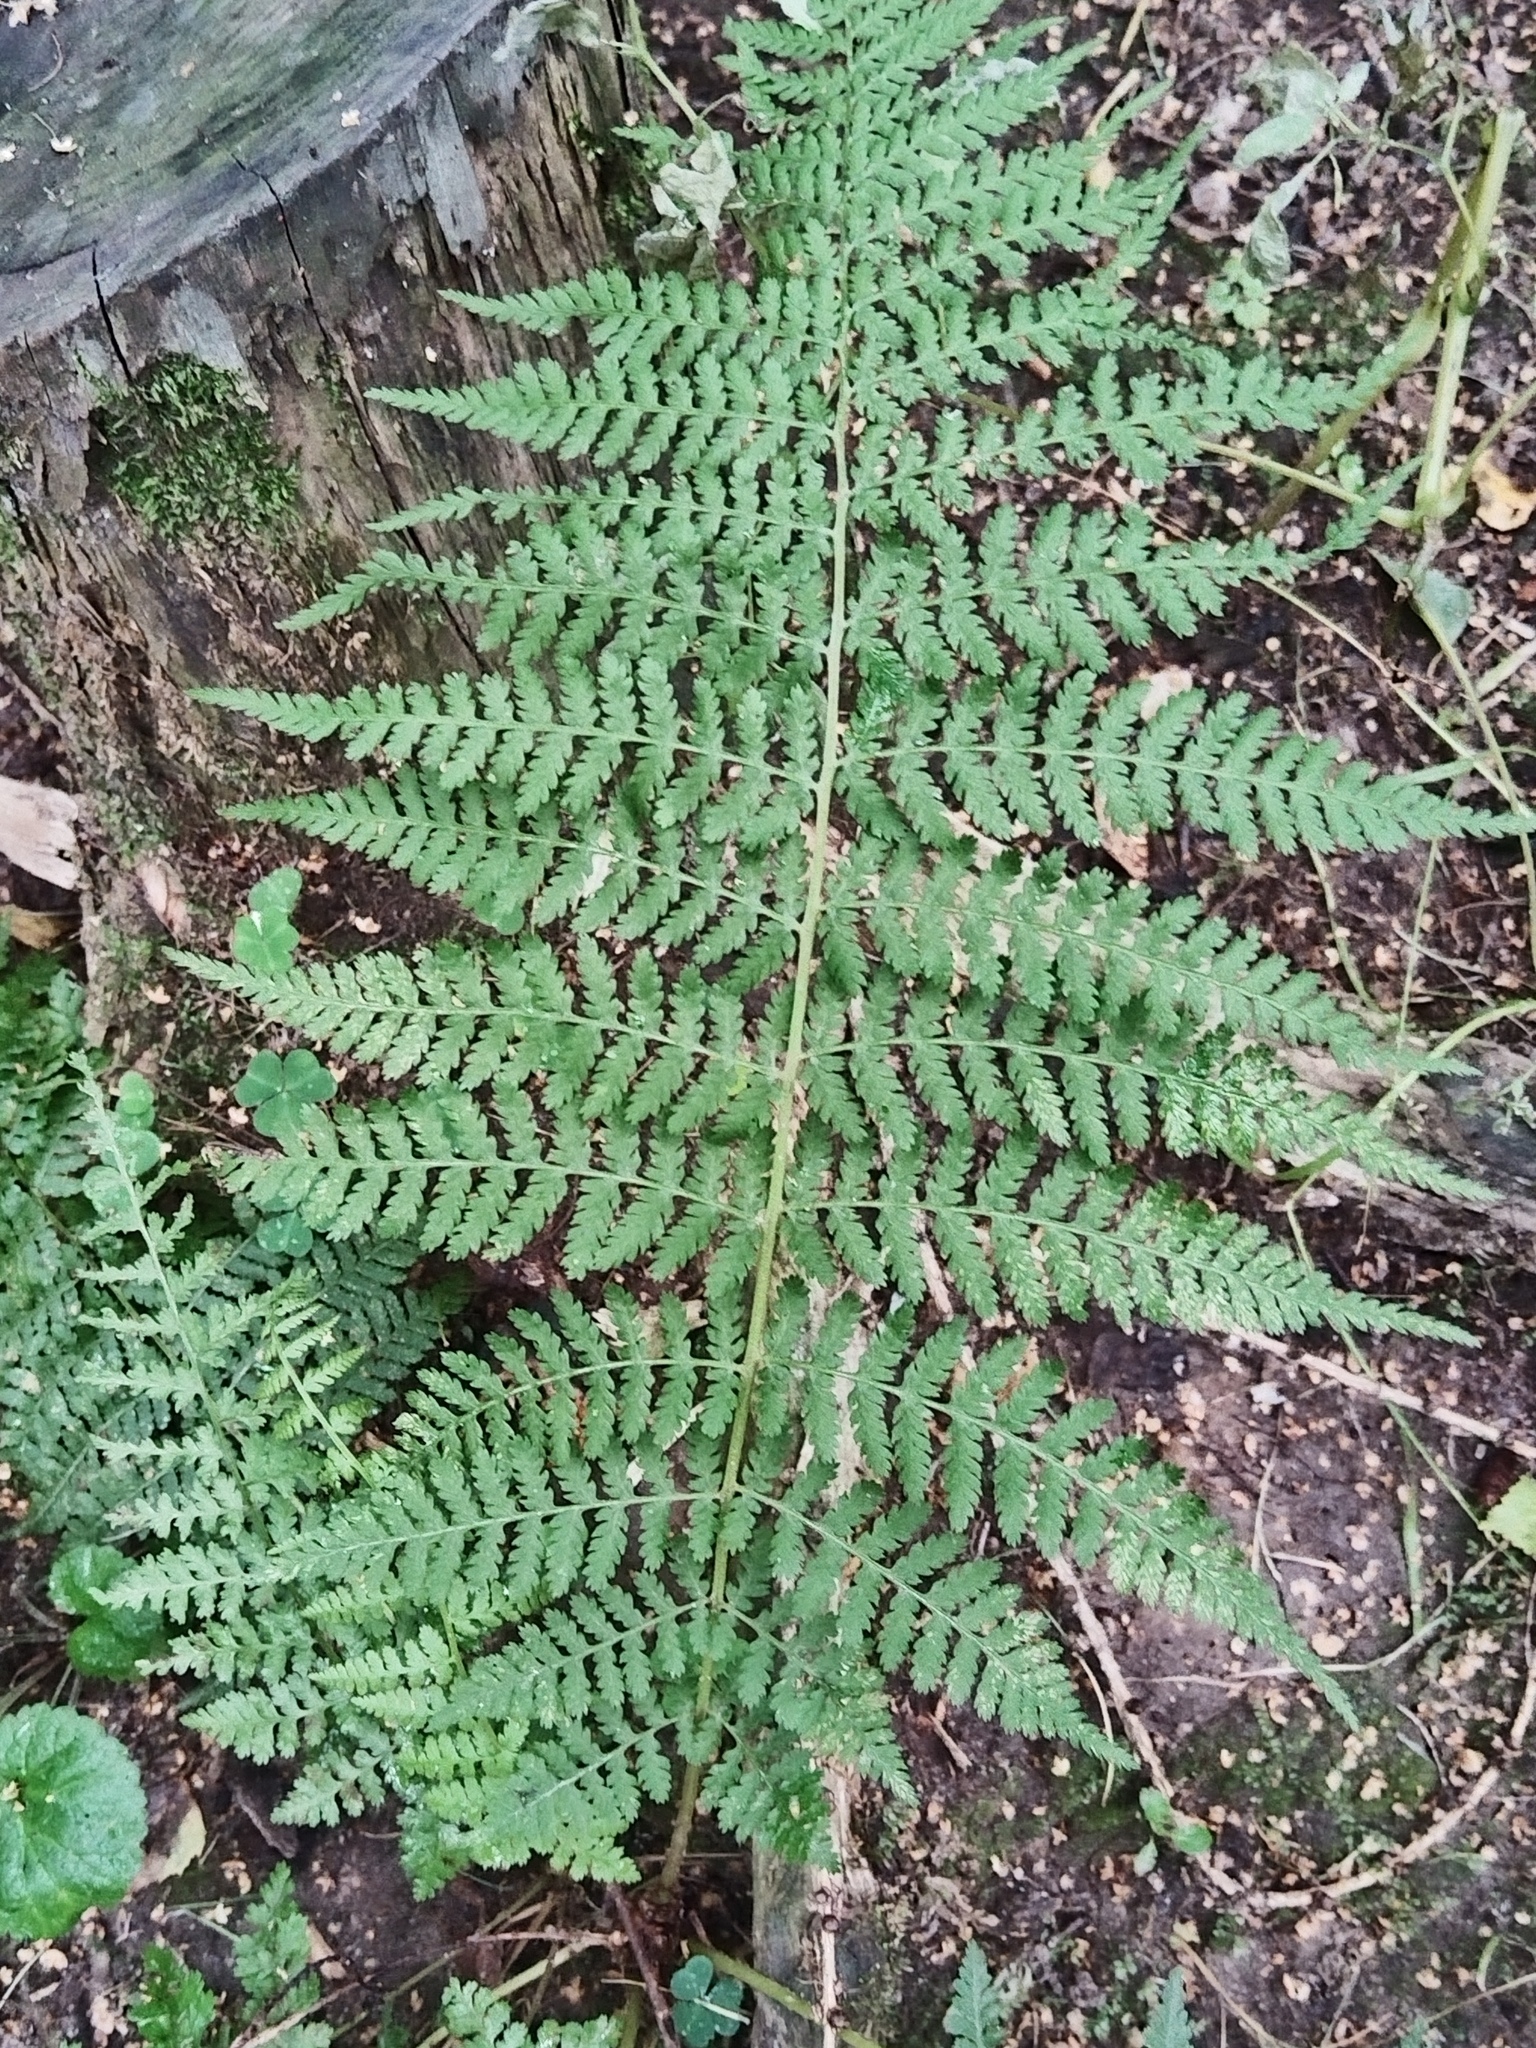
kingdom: Plantae
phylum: Tracheophyta
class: Polypodiopsida
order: Polypodiales
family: Athyriaceae
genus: Athyrium
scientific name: Athyrium filix-femina
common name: Lady fern
